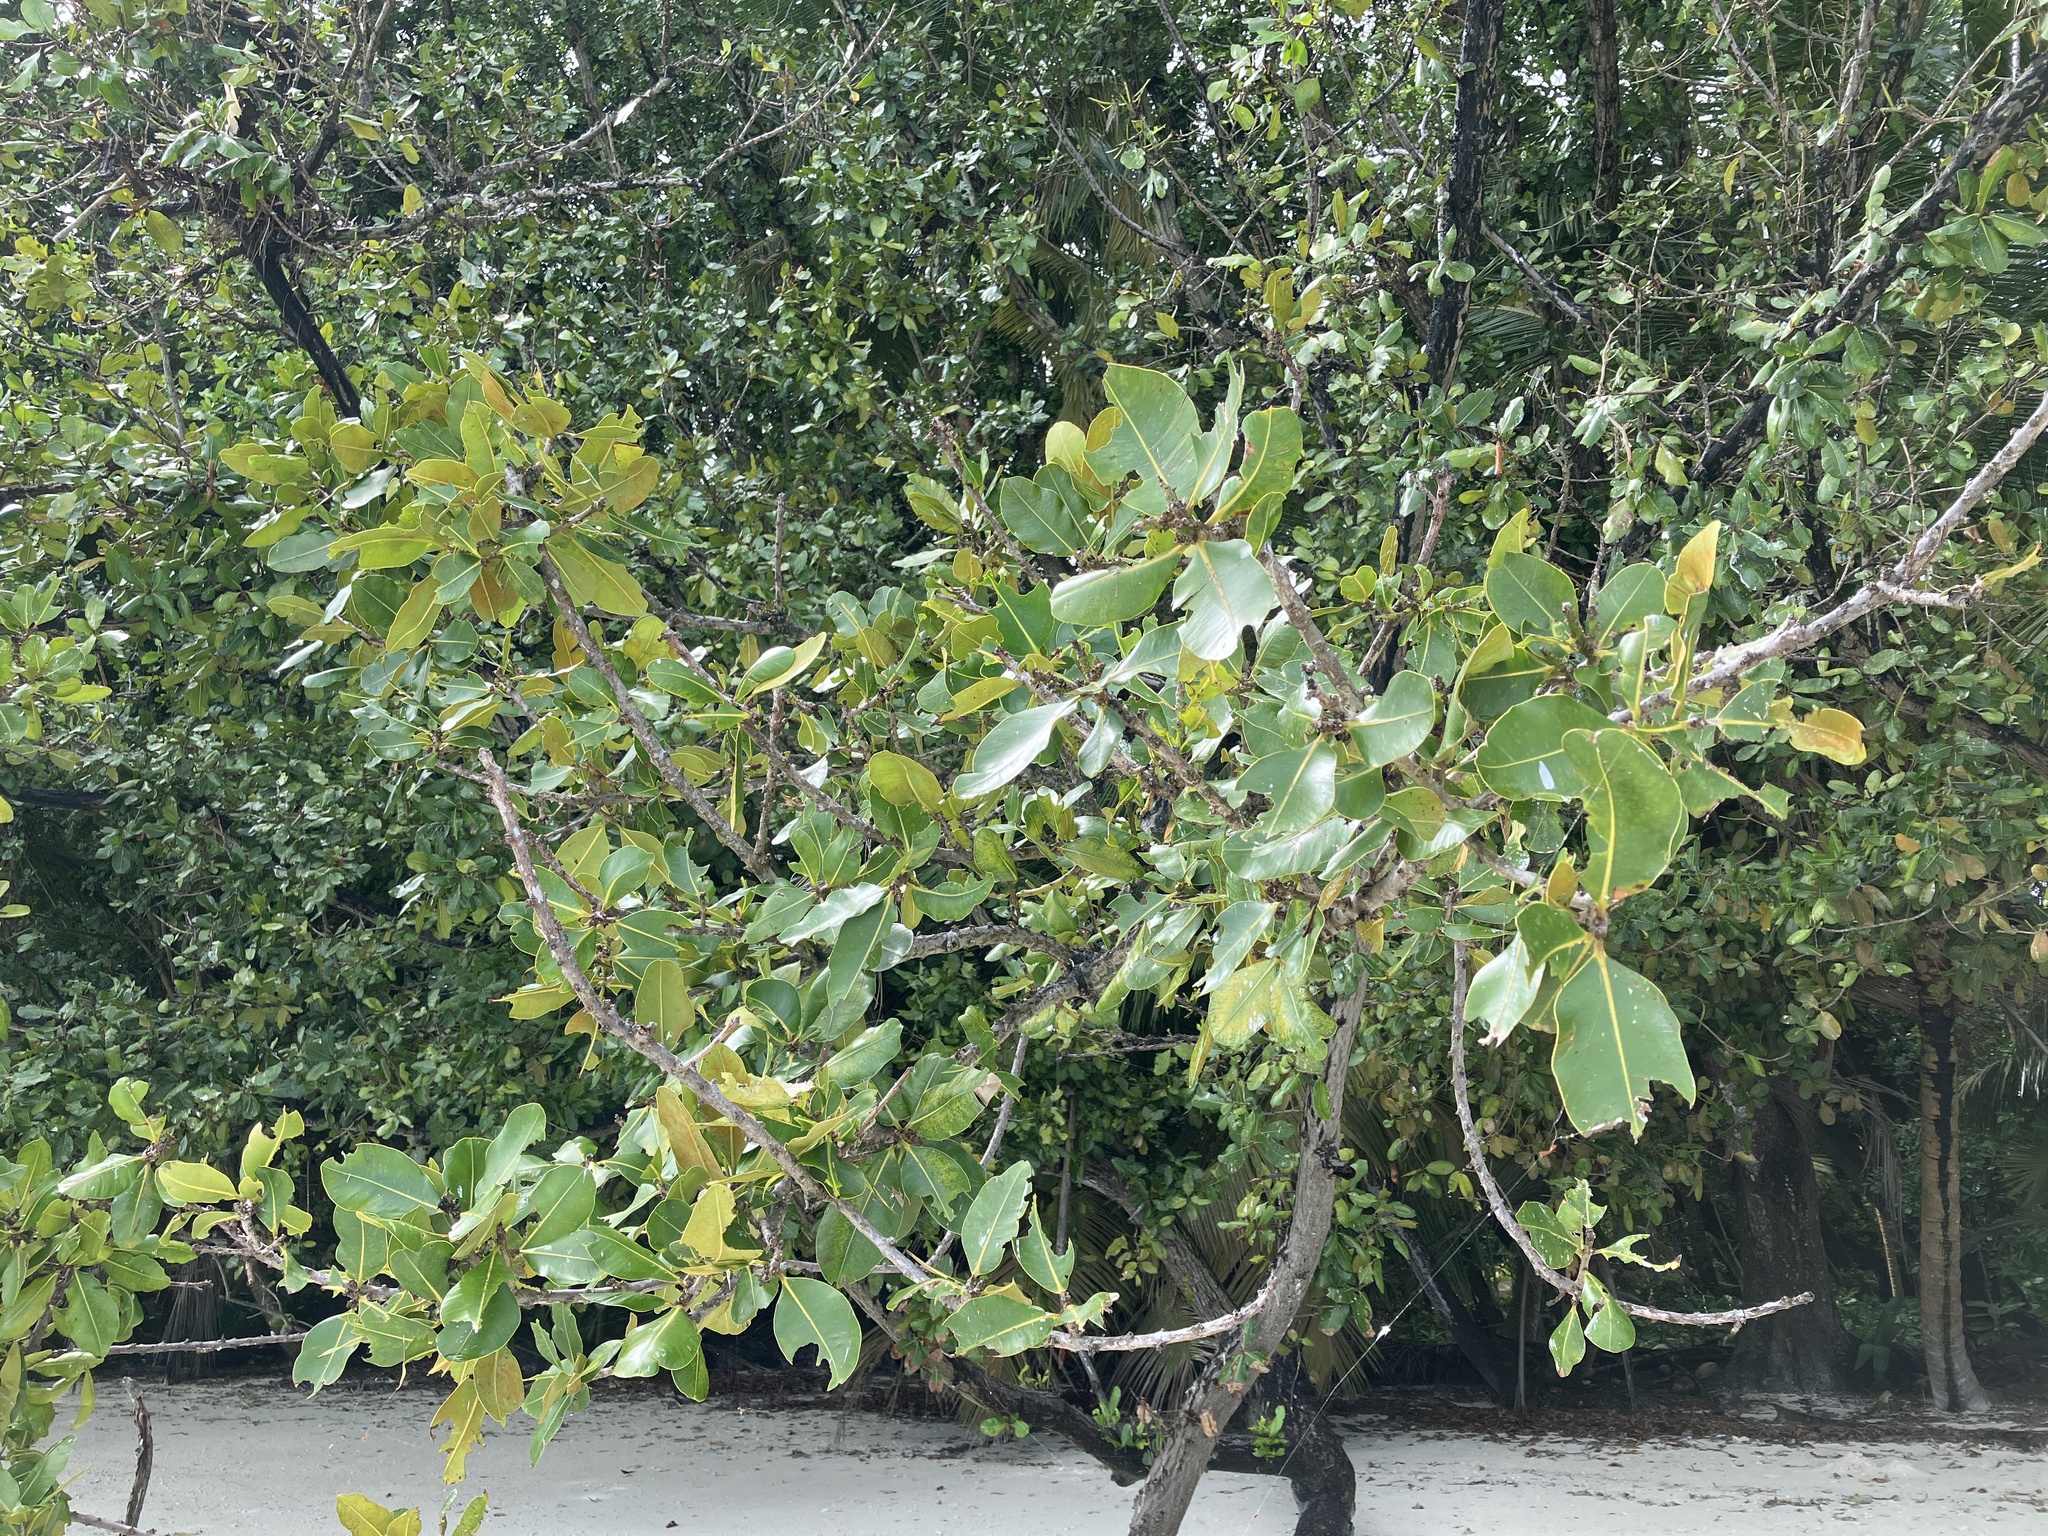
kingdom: Plantae
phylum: Tracheophyta
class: Magnoliopsida
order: Malpighiales
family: Calophyllaceae
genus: Calophyllum
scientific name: Calophyllum inophyllum
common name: Alexandrian laurel
